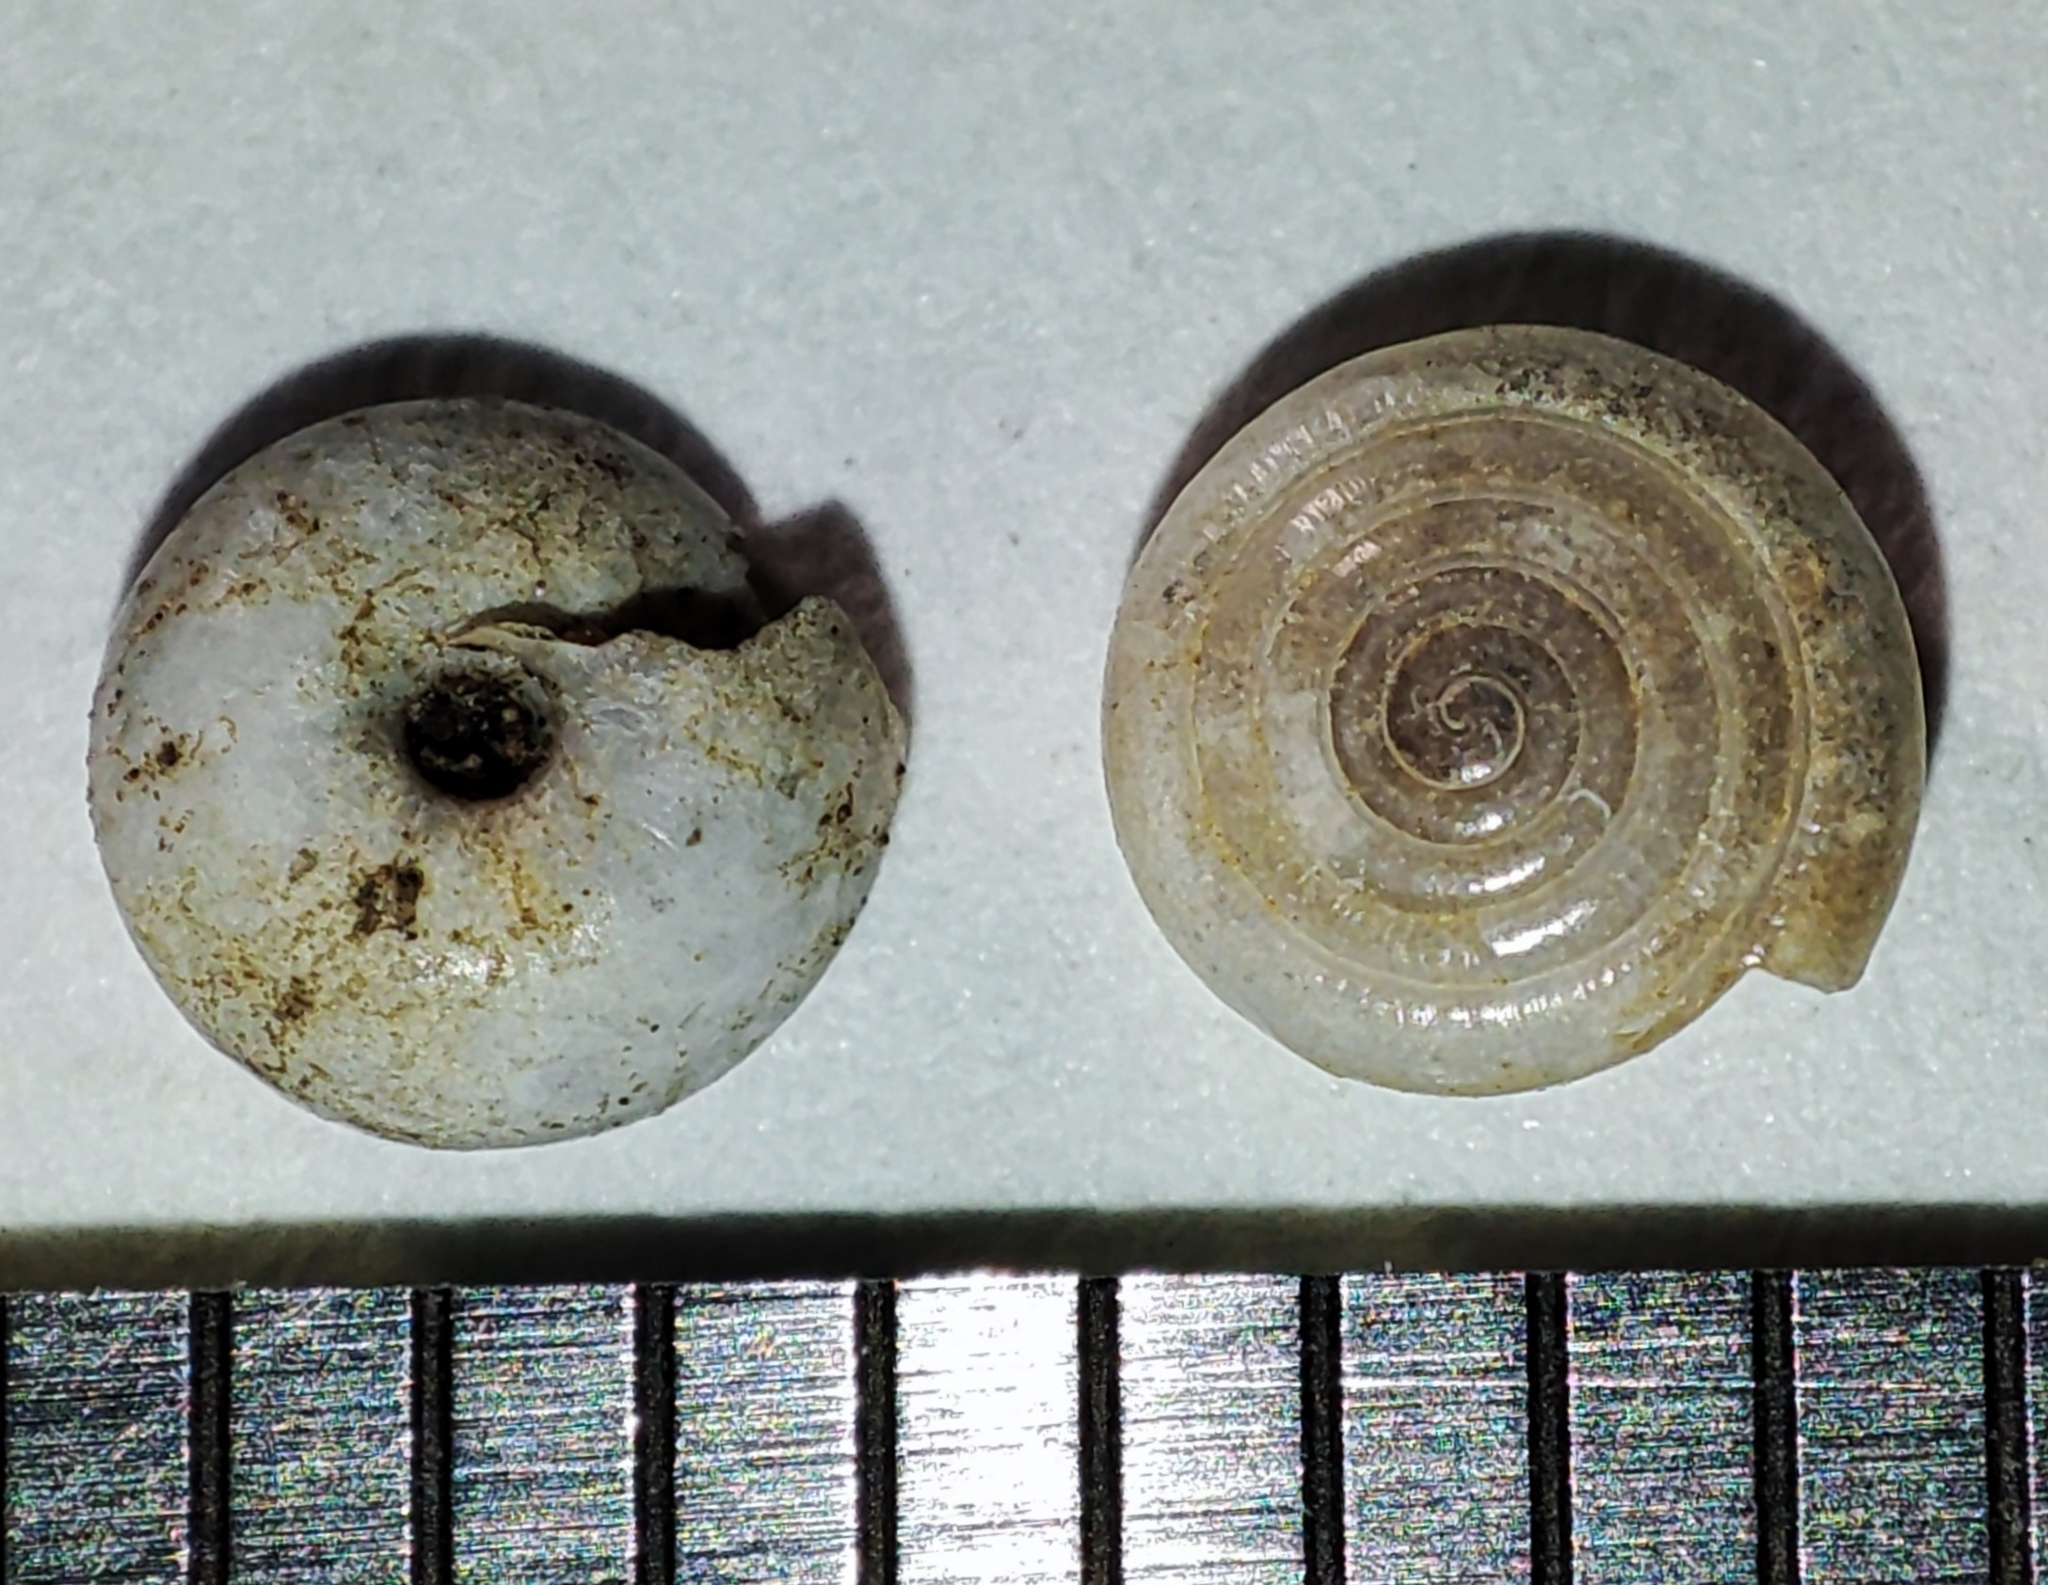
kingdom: Animalia
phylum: Mollusca
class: Gastropoda
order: Stylommatophora
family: Pristilomatidae
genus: Vitrea
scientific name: Vitrea nadejdae
